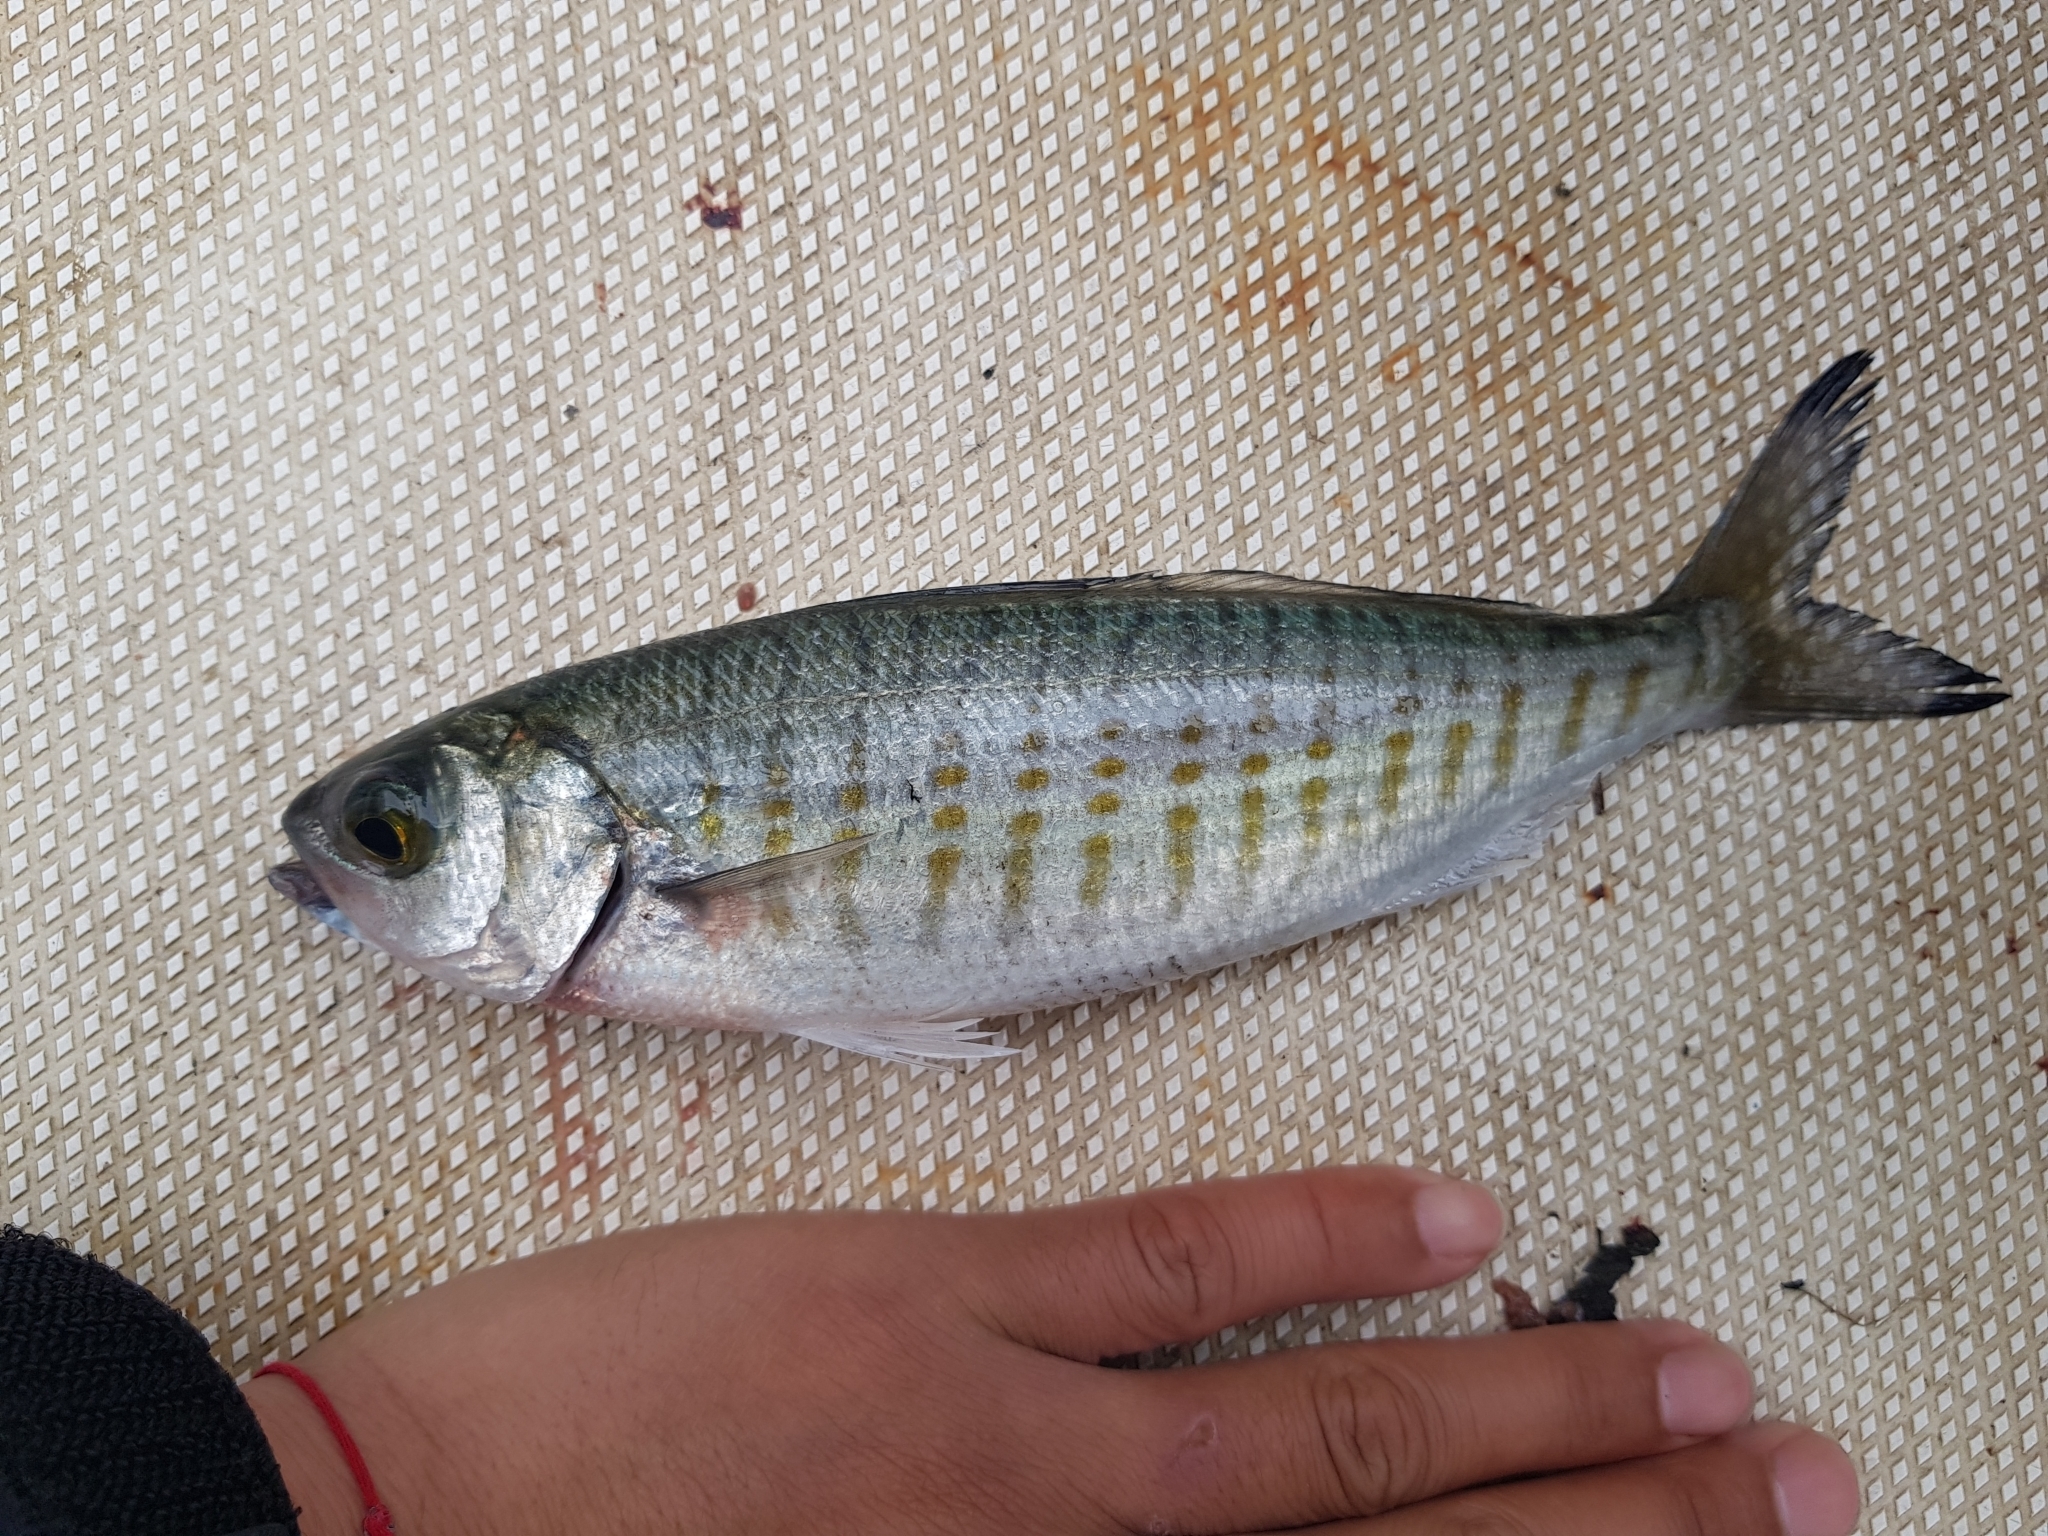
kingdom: Animalia
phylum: Chordata
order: Perciformes
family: Arripidae
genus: Arripis
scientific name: Arripis georgianus
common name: Australian herring
